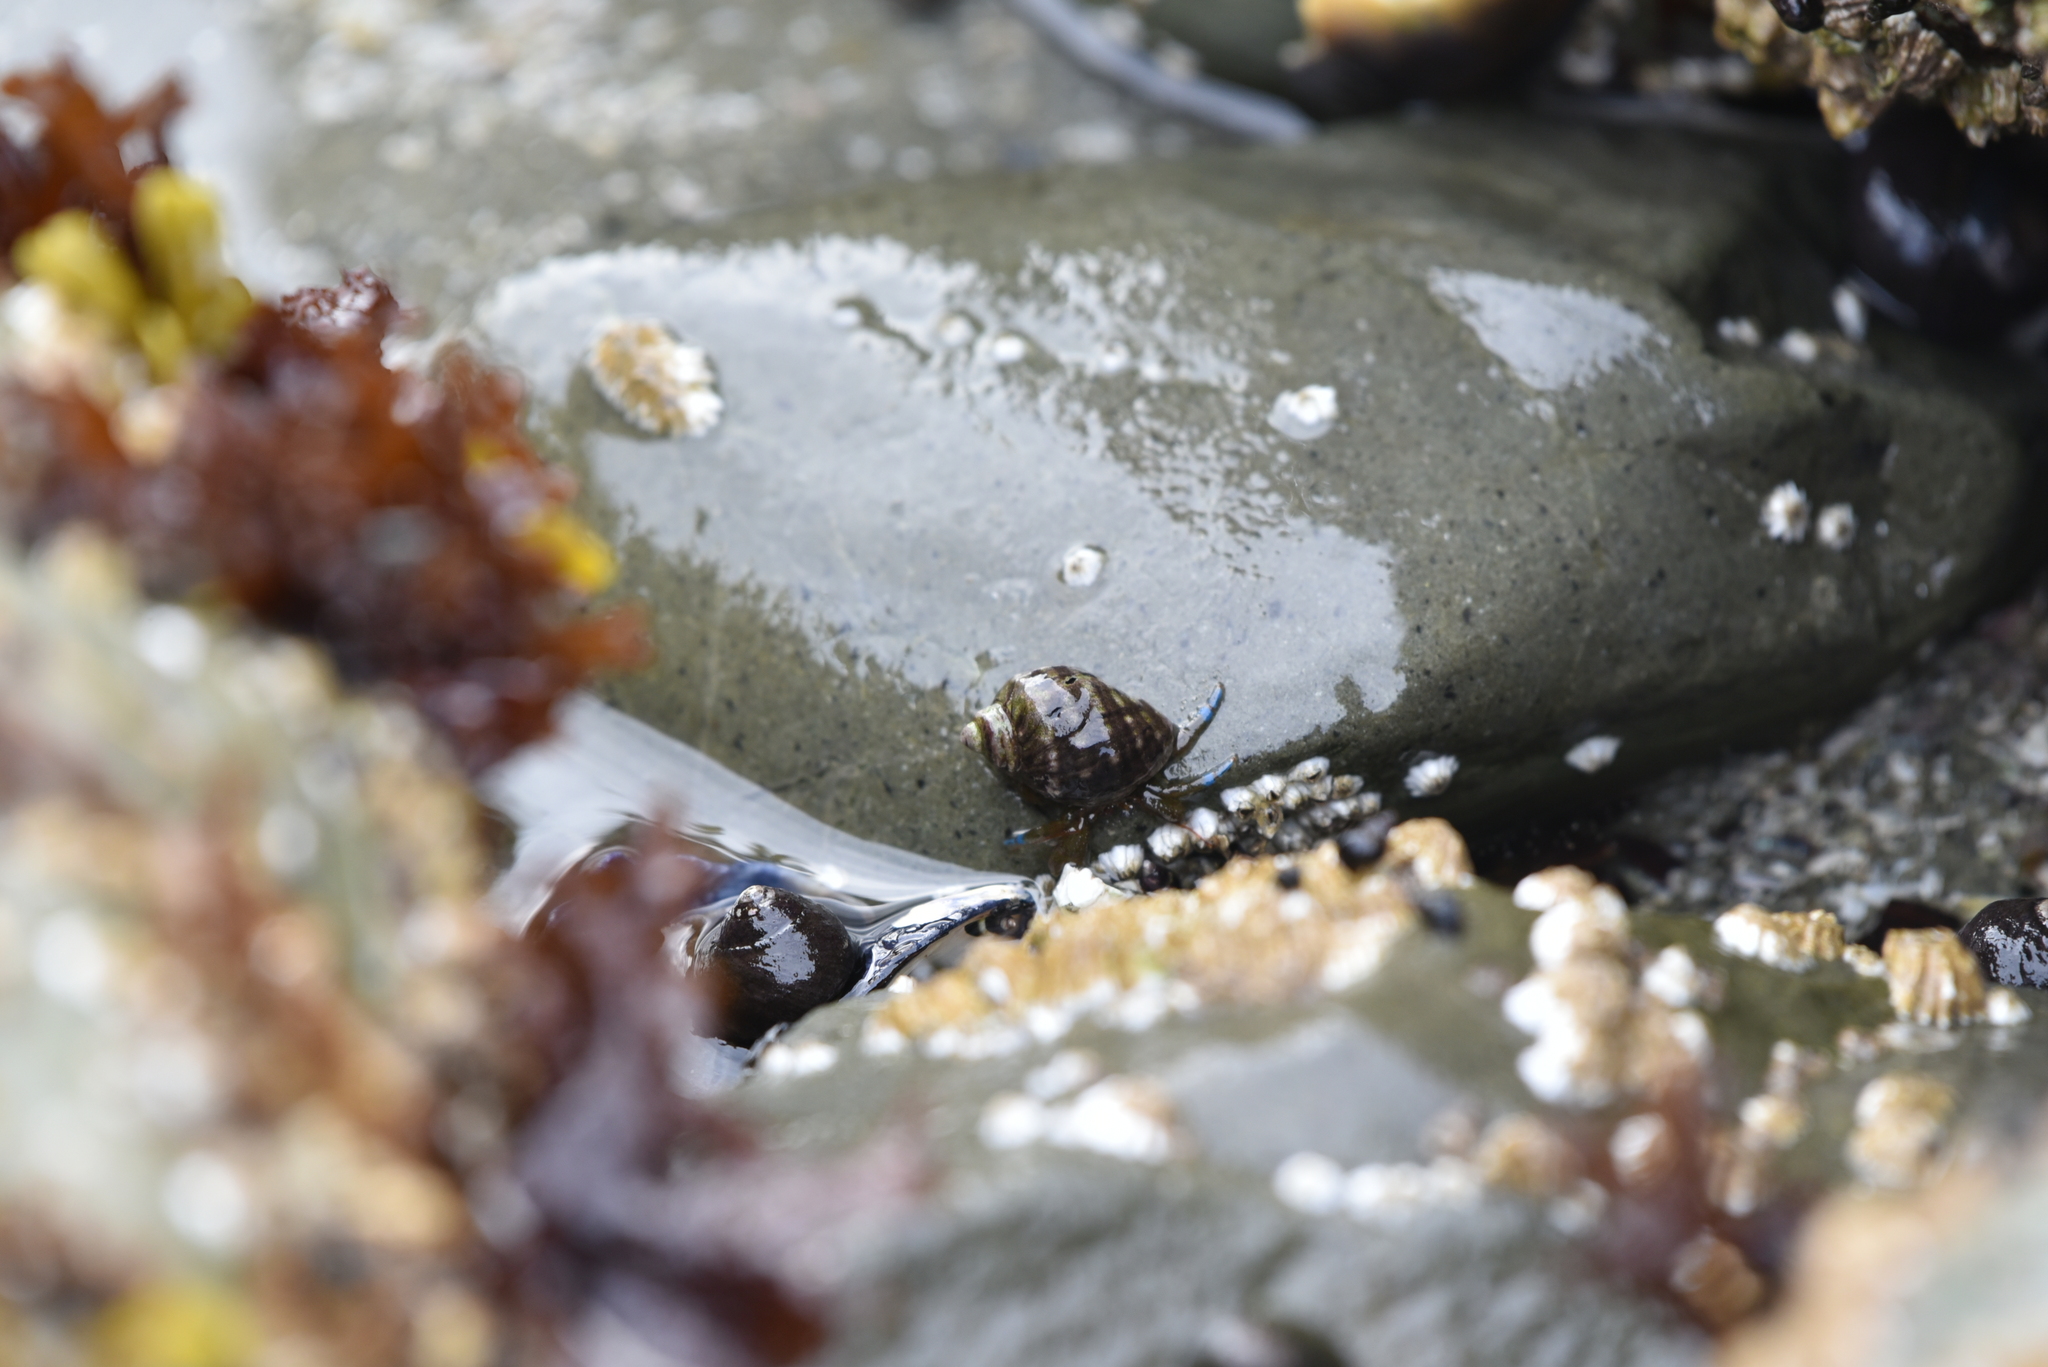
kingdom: Animalia
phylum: Arthropoda
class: Malacostraca
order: Decapoda
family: Paguridae
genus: Pagurus
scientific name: Pagurus samuelis
